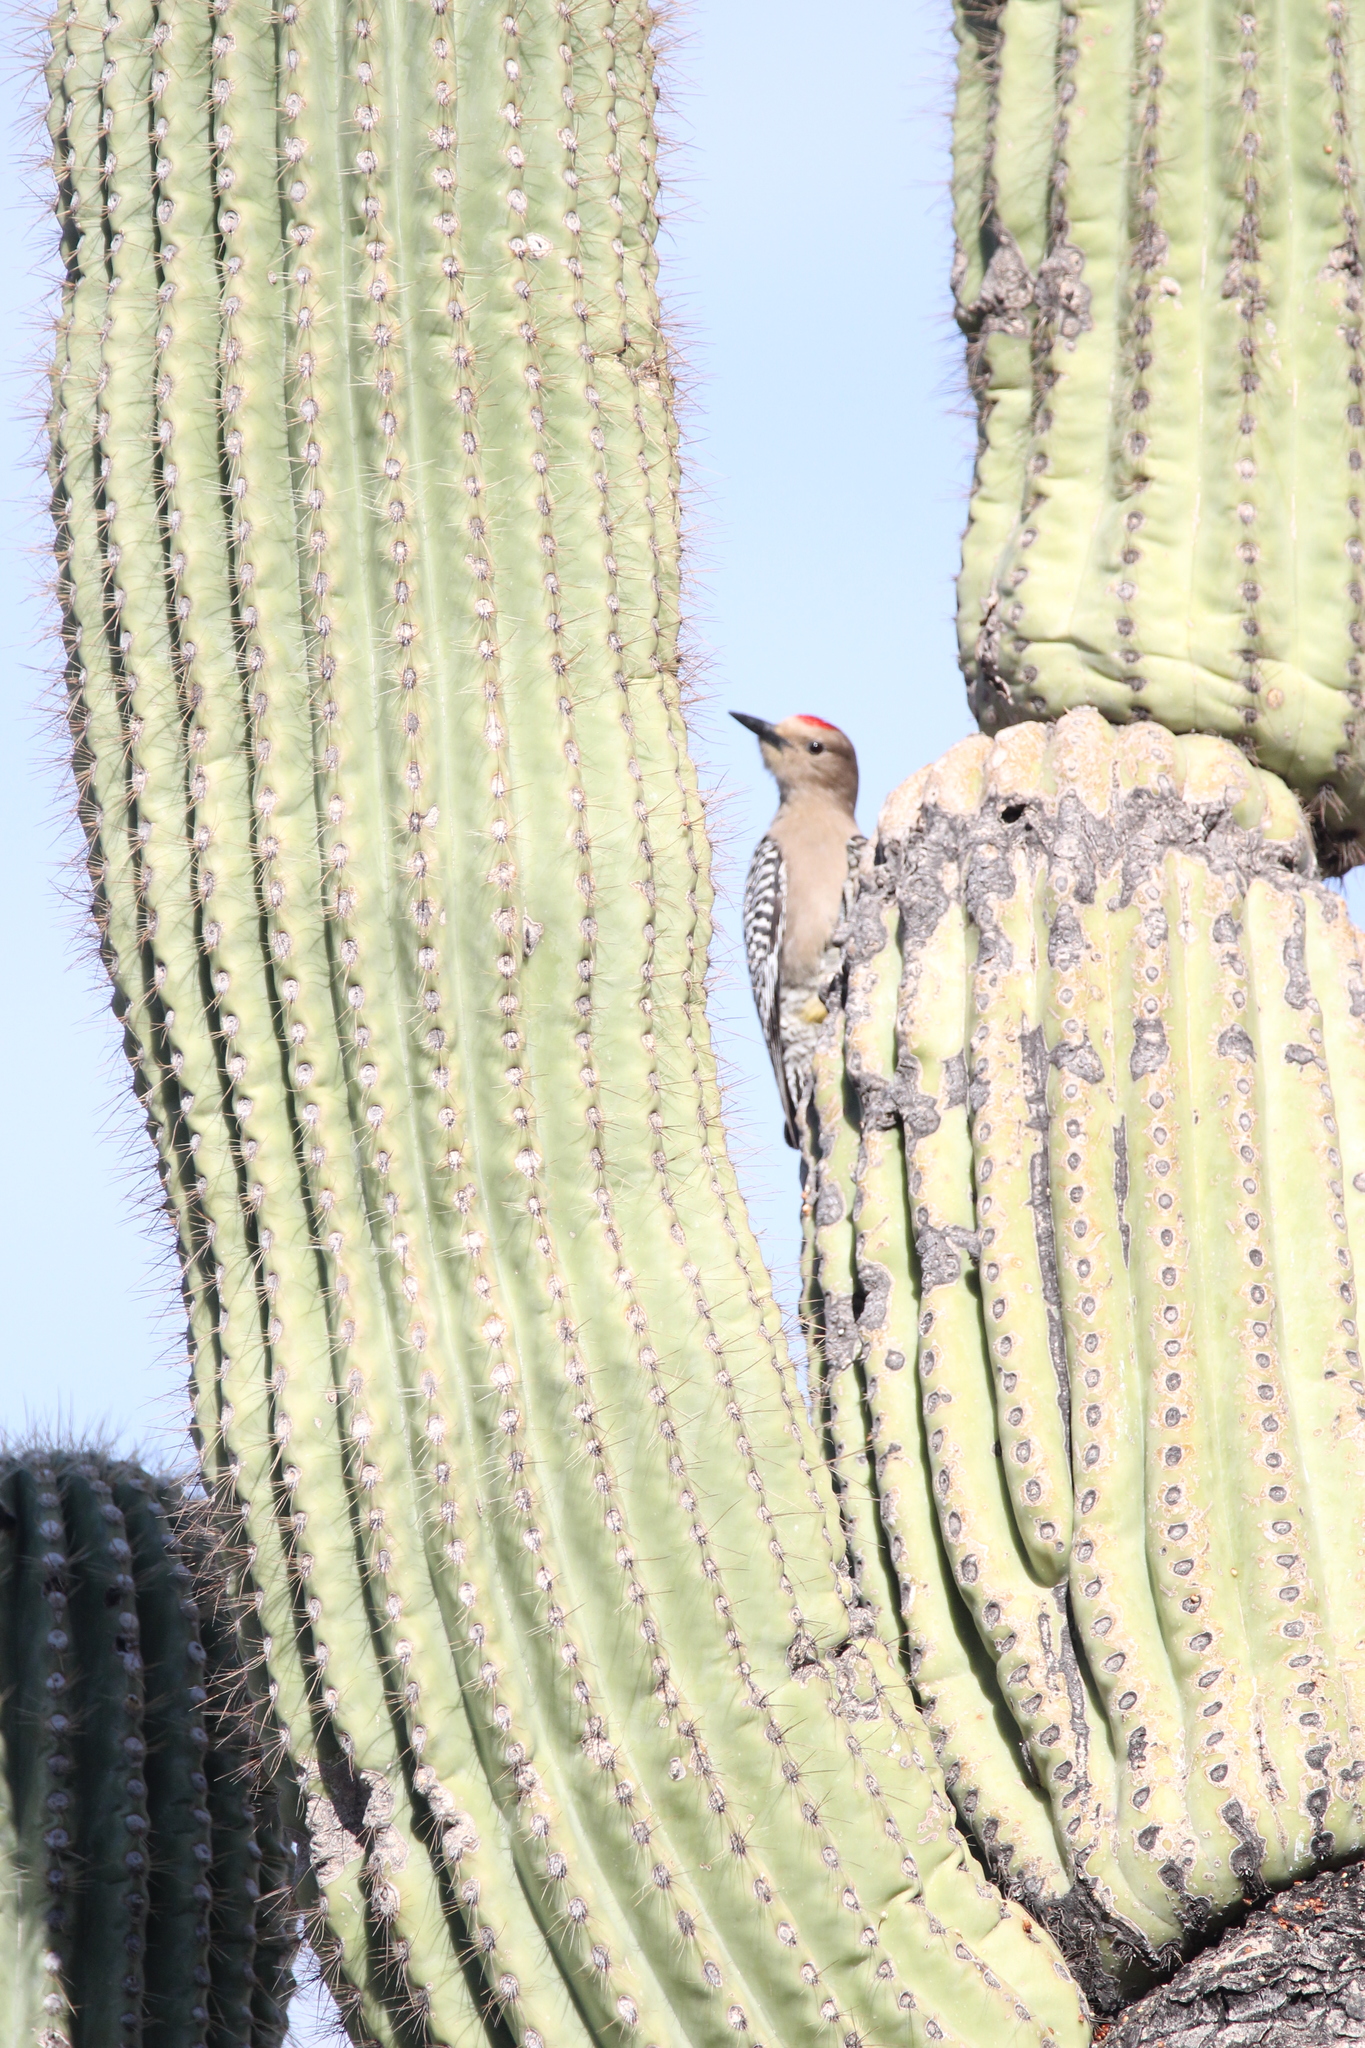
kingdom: Animalia
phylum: Chordata
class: Aves
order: Piciformes
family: Picidae
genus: Melanerpes
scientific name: Melanerpes uropygialis
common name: Gila woodpecker
